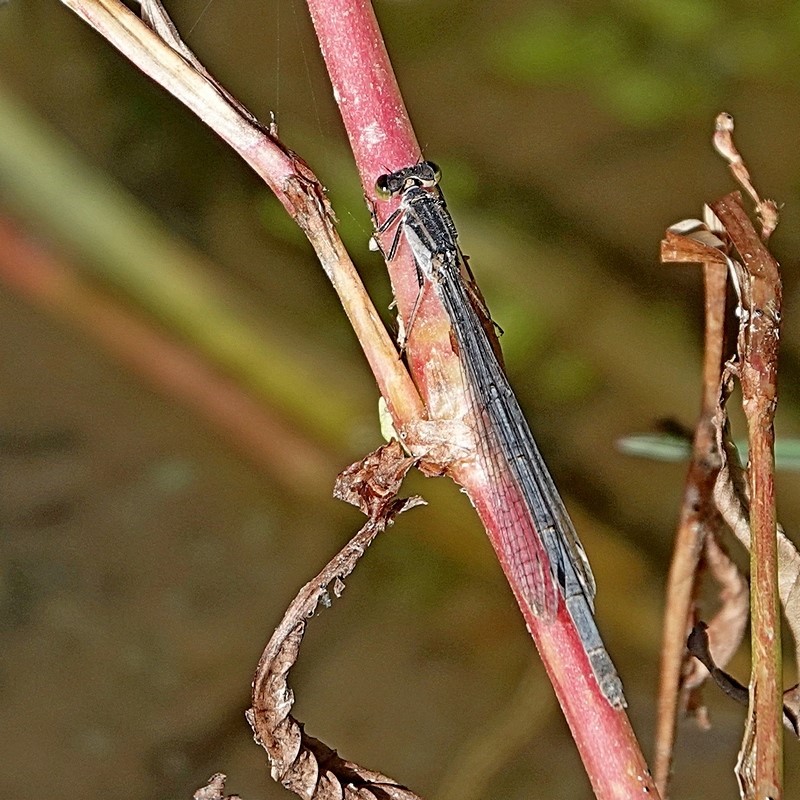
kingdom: Animalia
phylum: Arthropoda
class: Insecta
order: Odonata
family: Coenagrionidae
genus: Ischnura
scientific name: Ischnura heterosticta
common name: Common bluetail
